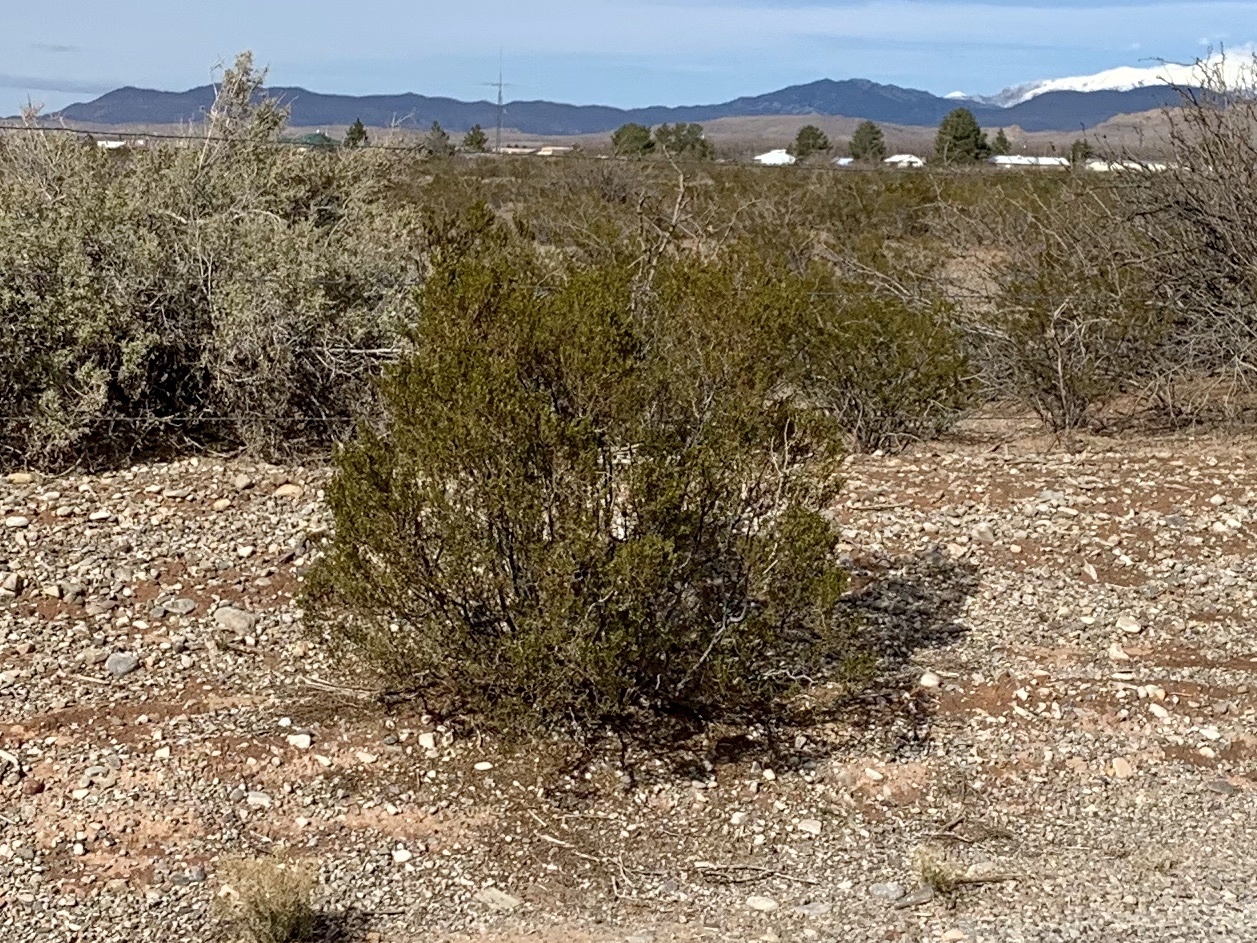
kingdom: Plantae
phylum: Tracheophyta
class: Magnoliopsida
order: Zygophyllales
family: Zygophyllaceae
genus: Larrea
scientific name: Larrea tridentata
